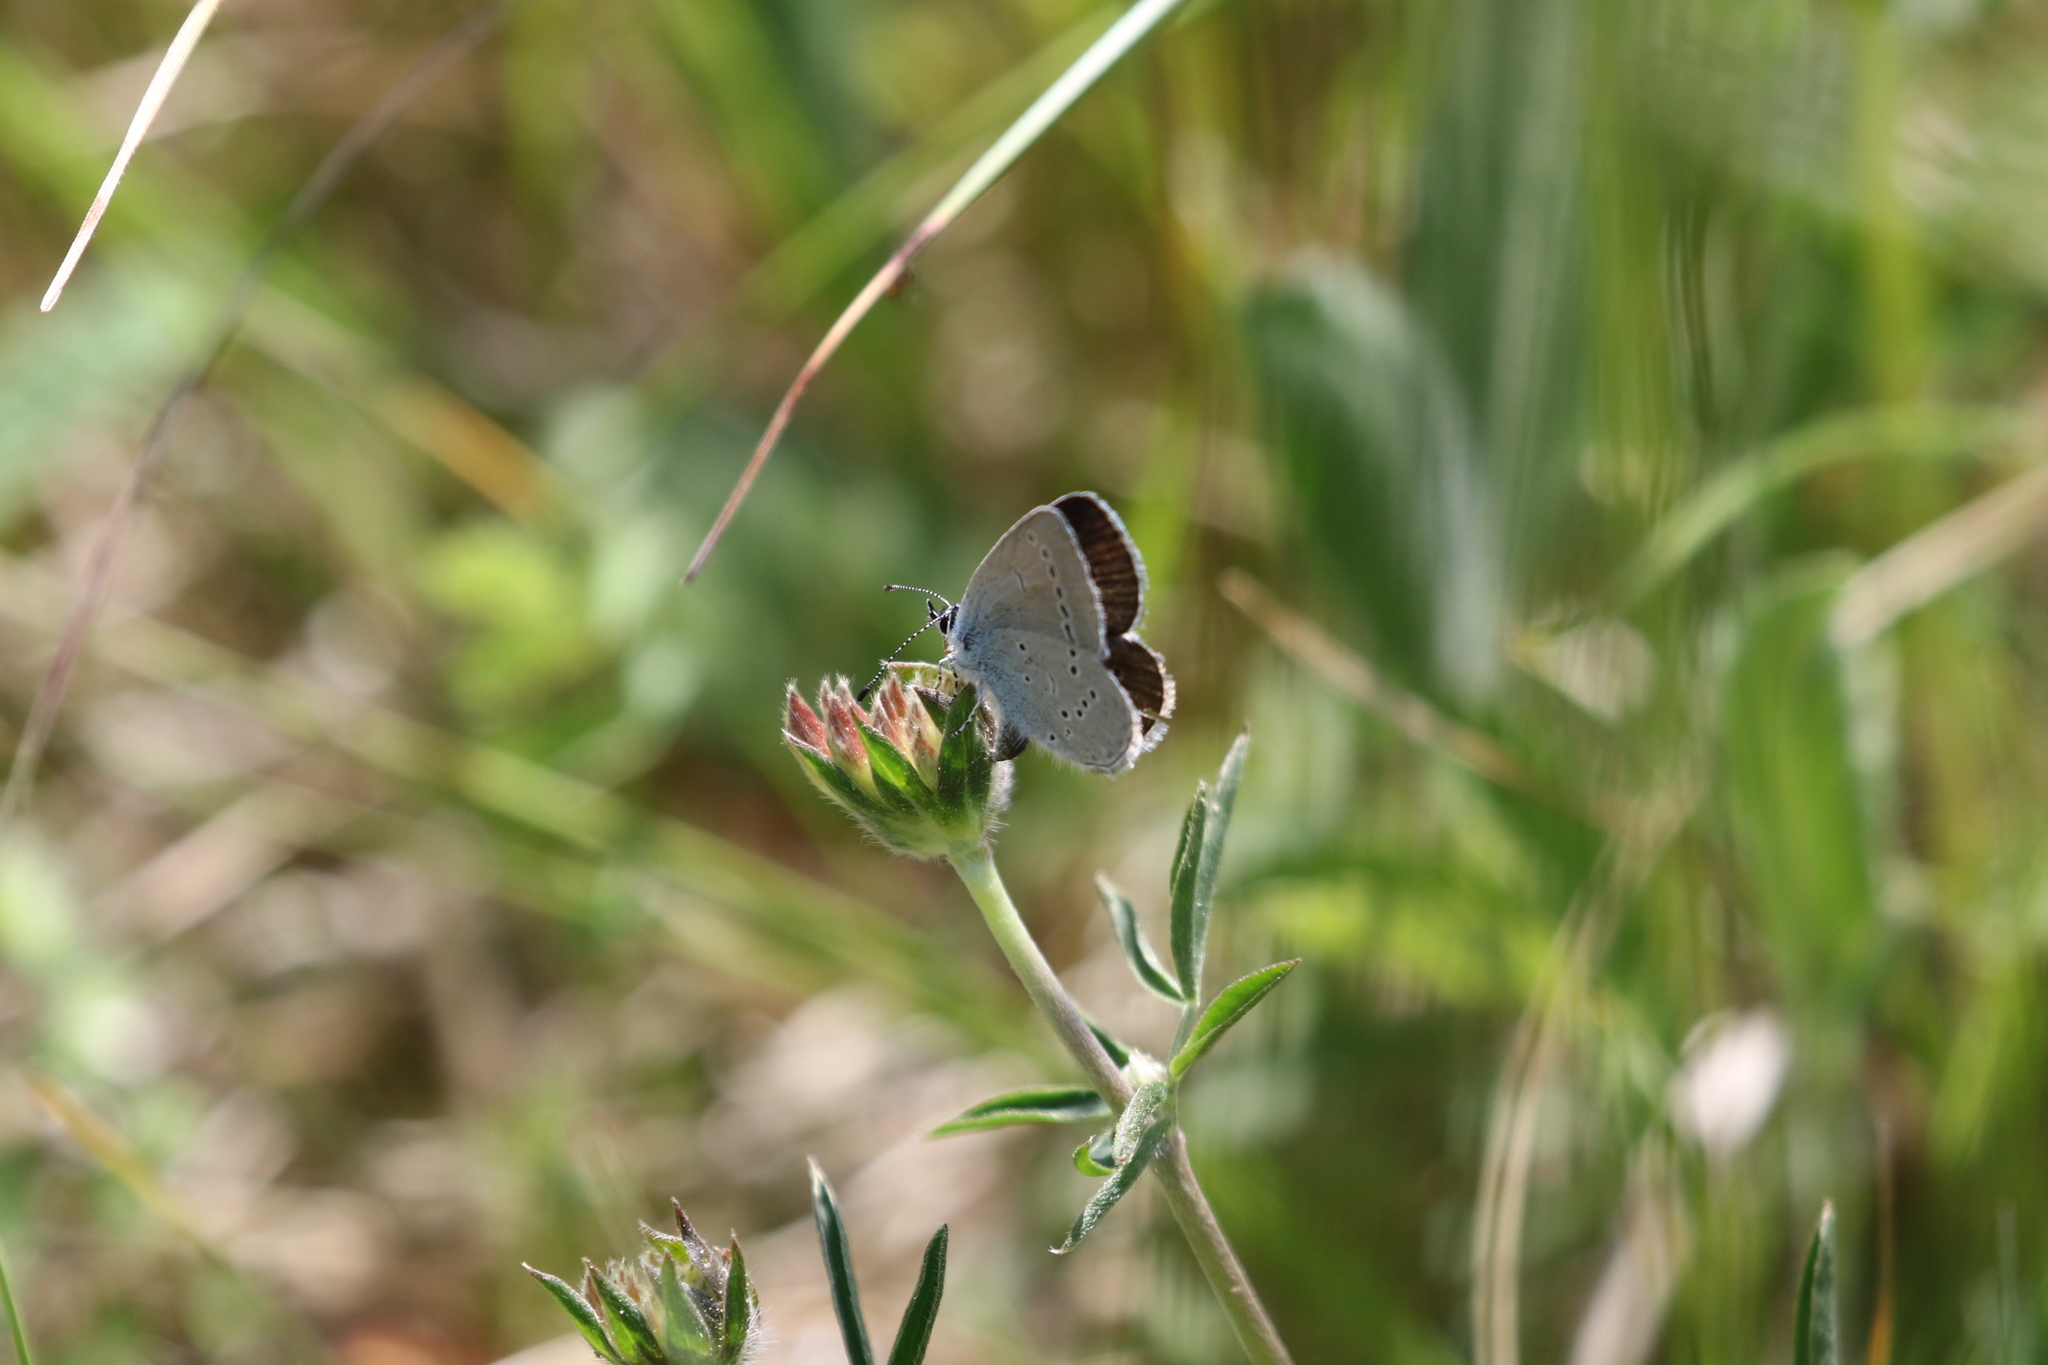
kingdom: Animalia
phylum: Arthropoda
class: Insecta
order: Lepidoptera
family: Lycaenidae
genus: Cupido
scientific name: Cupido minimus
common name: Small blue
